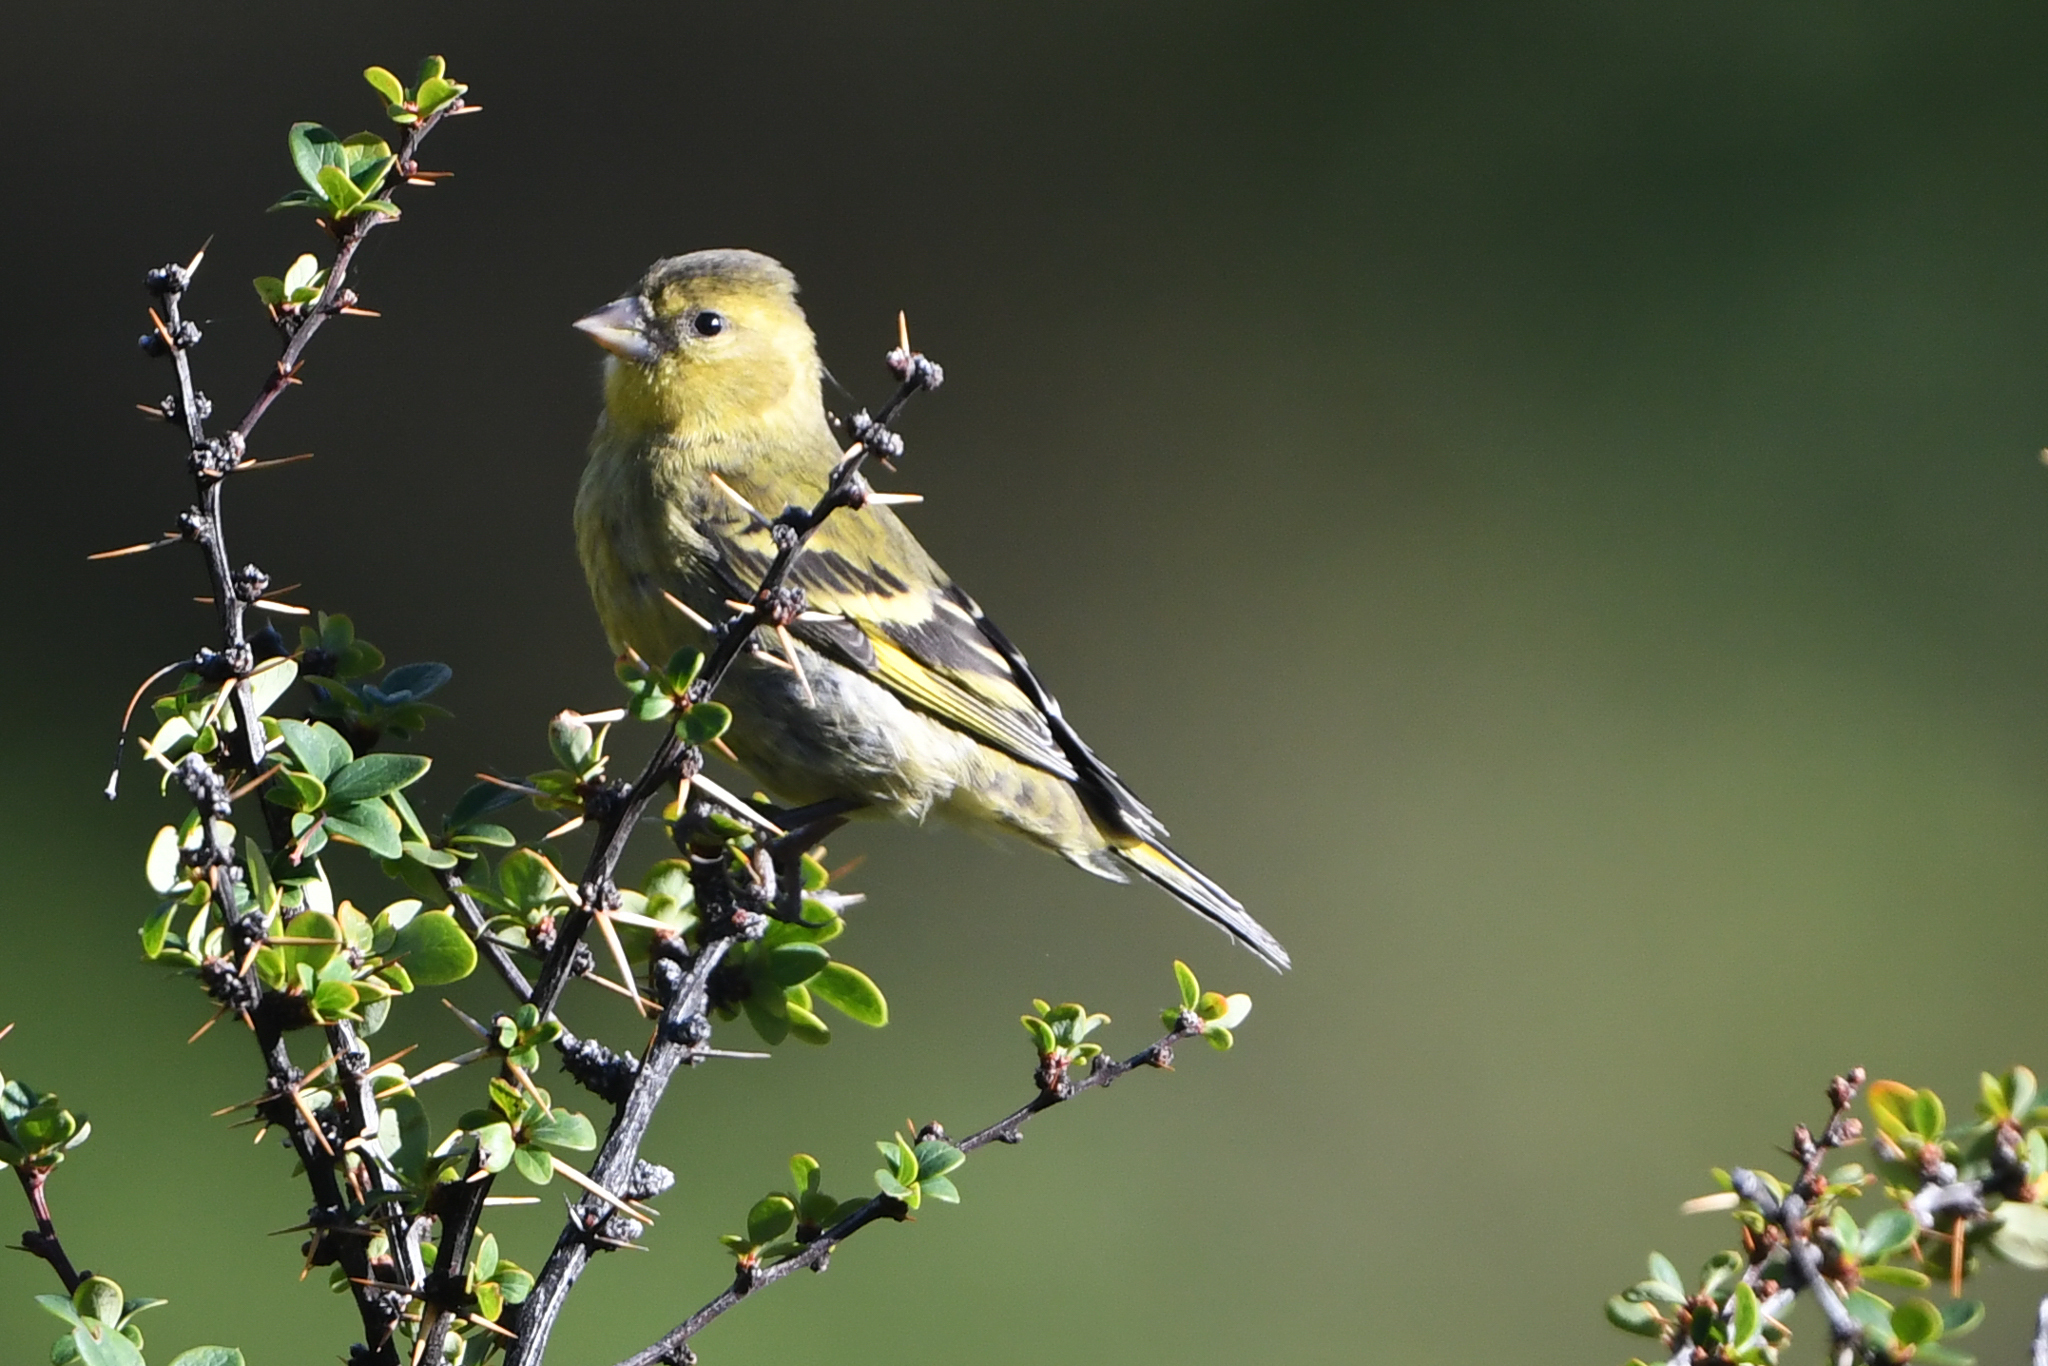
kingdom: Animalia
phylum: Chordata
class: Aves
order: Passeriformes
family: Fringillidae
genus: Spinus
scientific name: Spinus barbatus
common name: Black-chinned siskin
